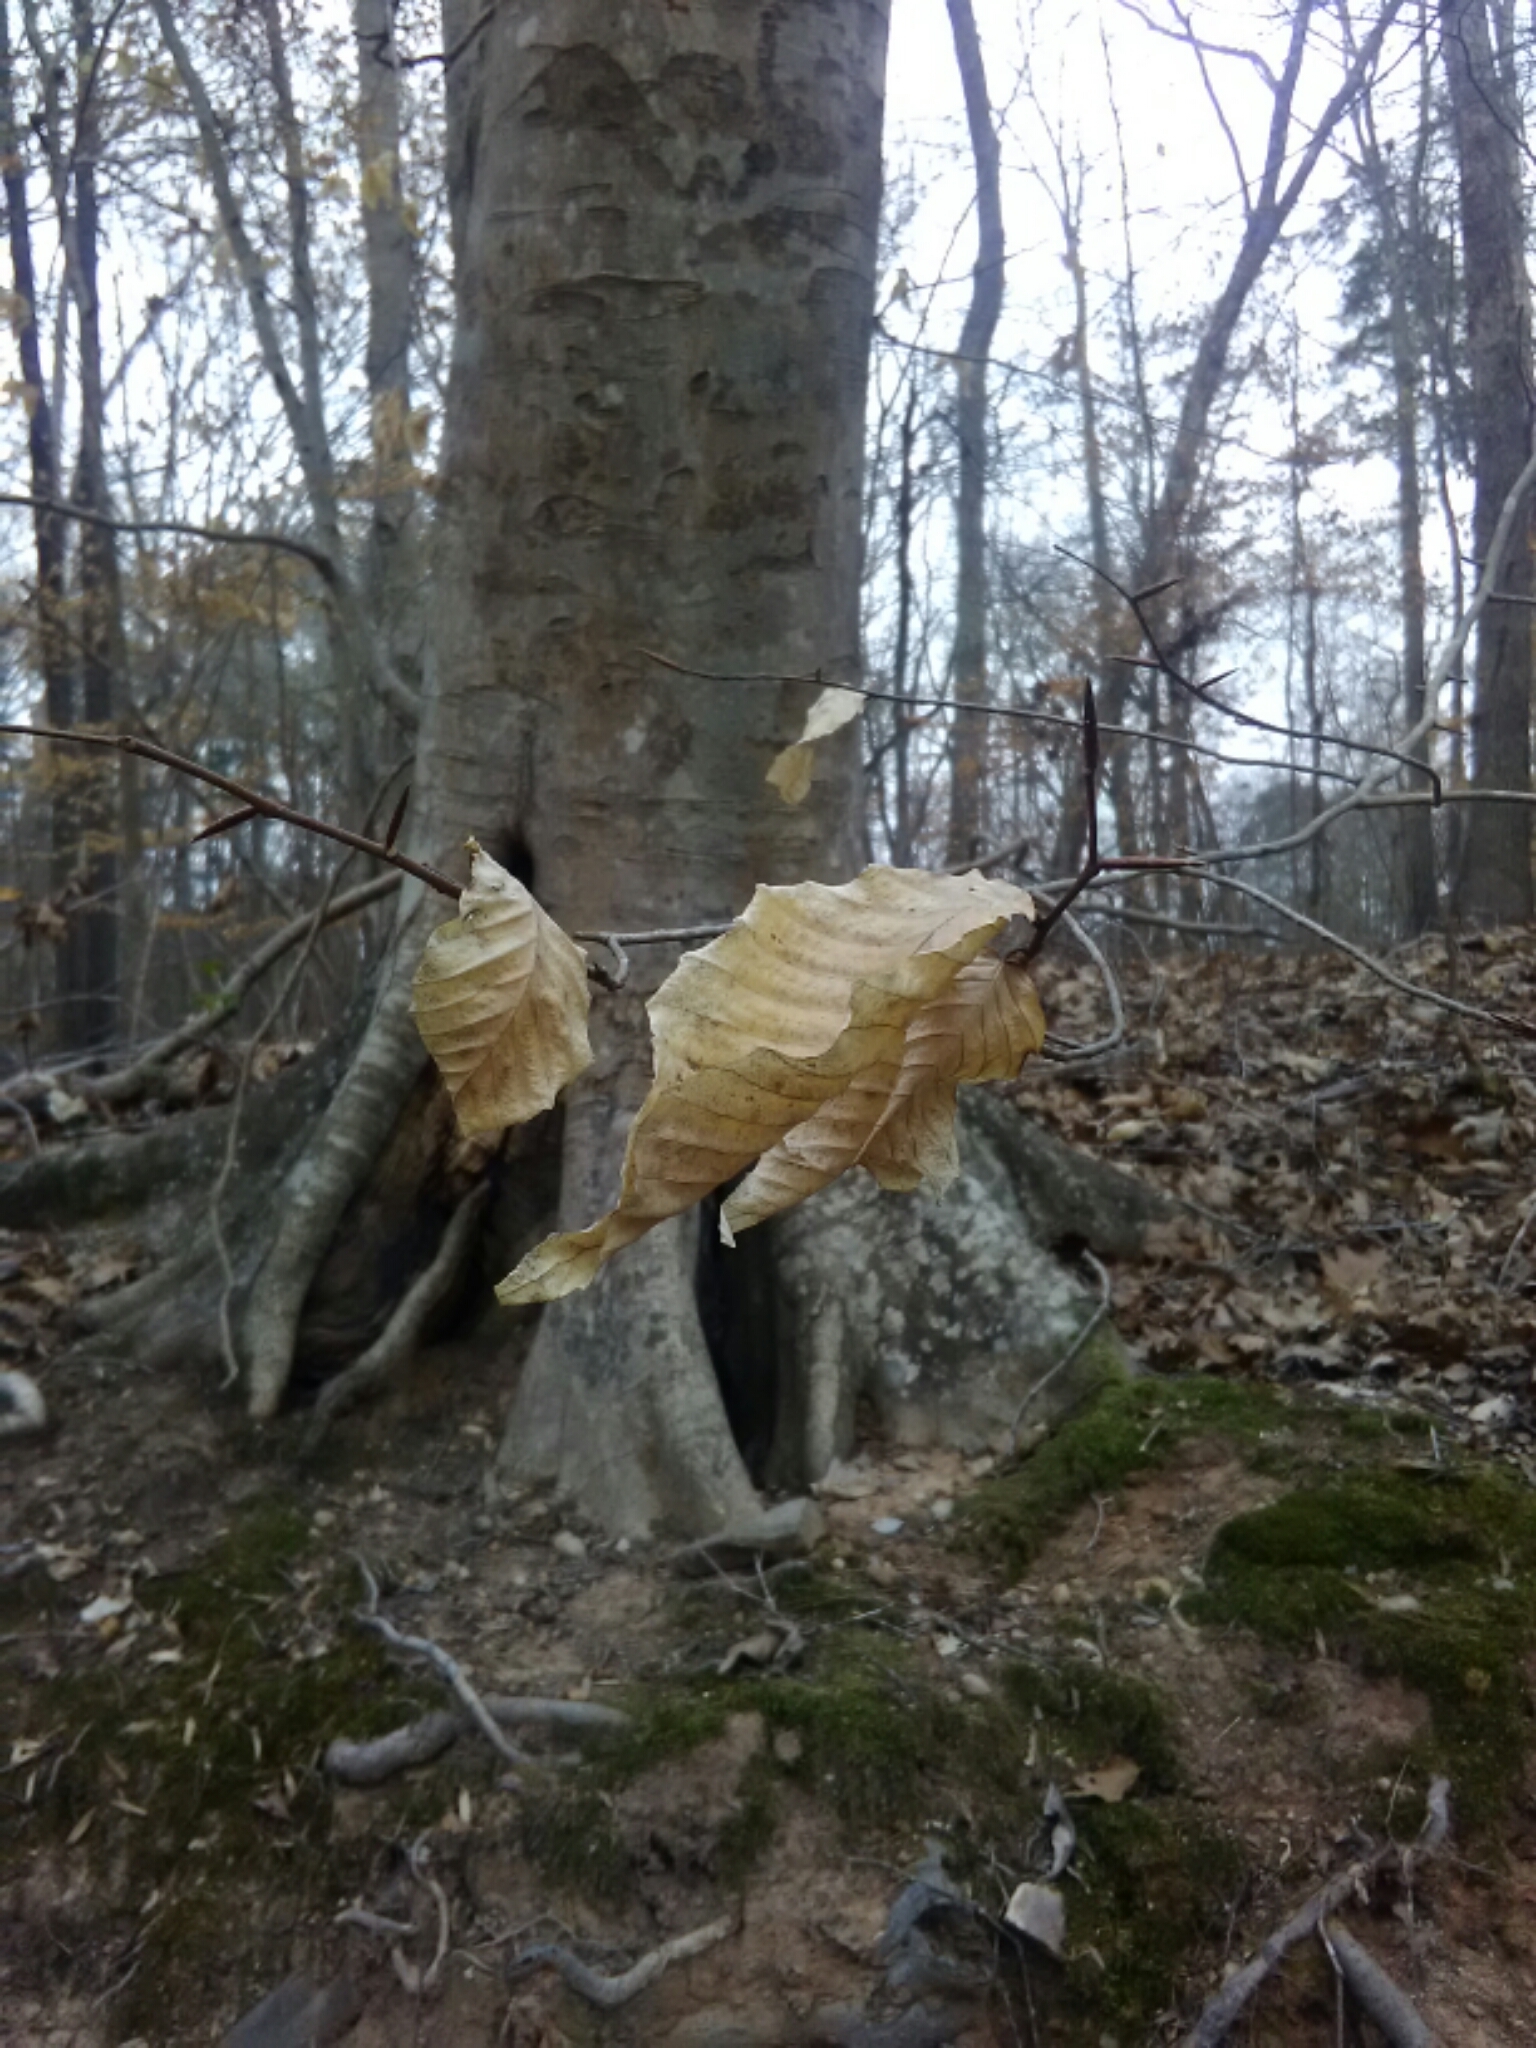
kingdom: Plantae
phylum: Tracheophyta
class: Magnoliopsida
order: Fagales
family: Fagaceae
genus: Fagus
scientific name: Fagus grandifolia
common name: American beech
